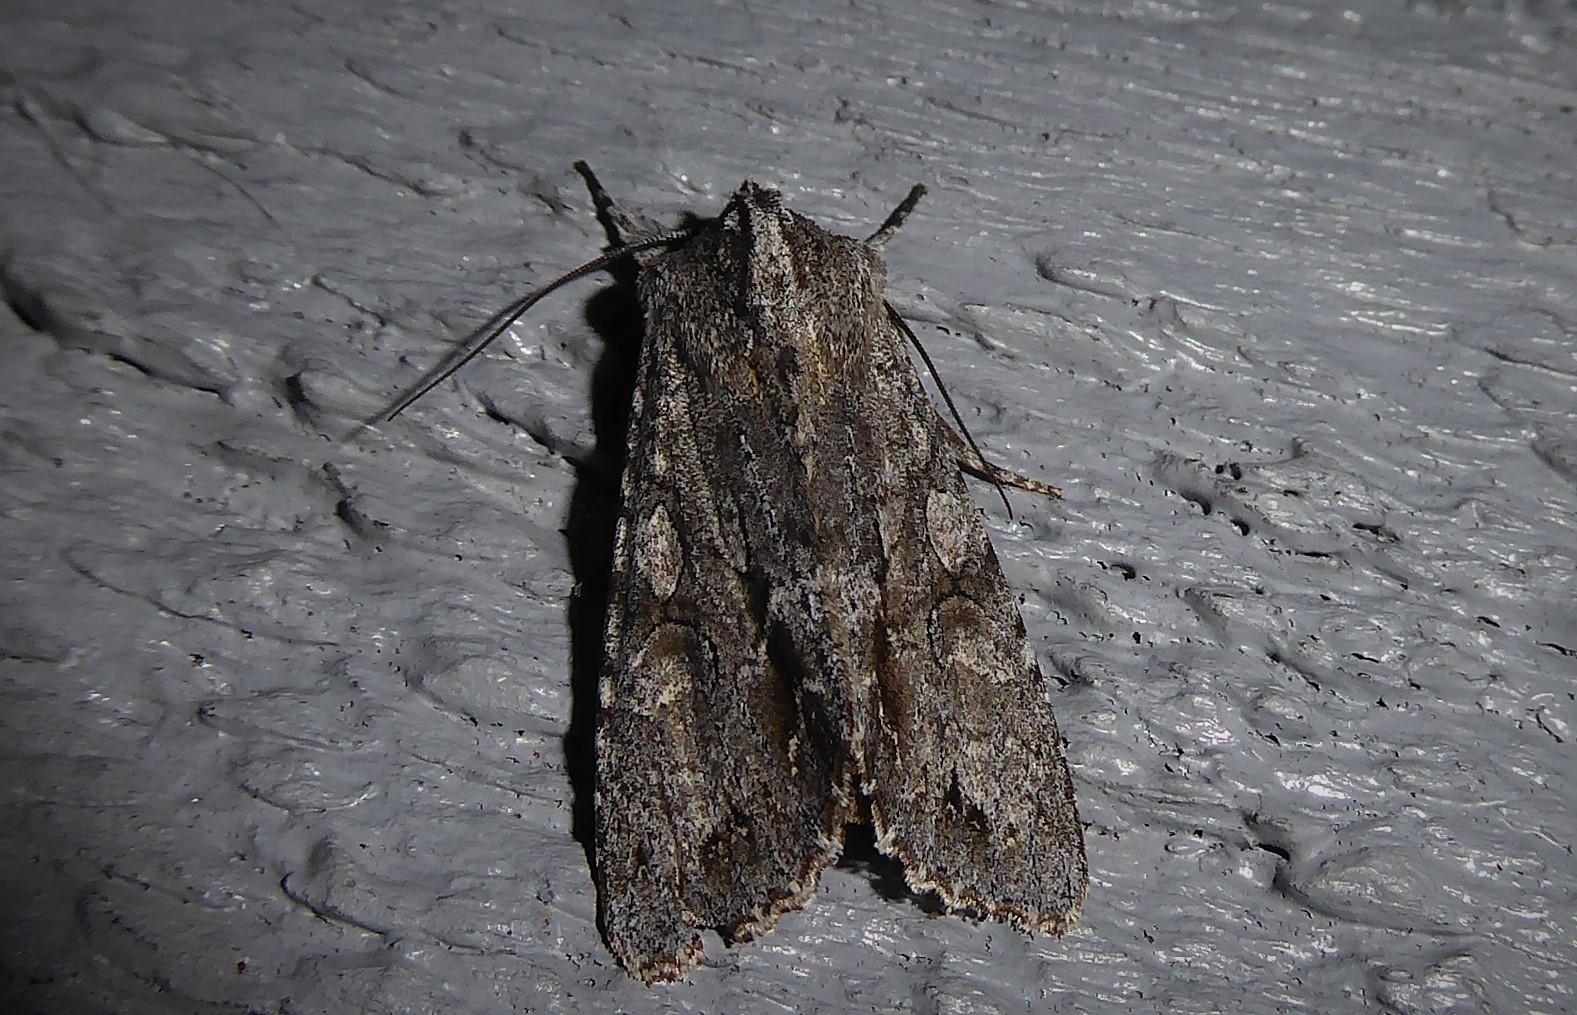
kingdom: Animalia
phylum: Arthropoda
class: Insecta
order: Lepidoptera
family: Noctuidae
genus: Ichneutica
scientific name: Ichneutica
